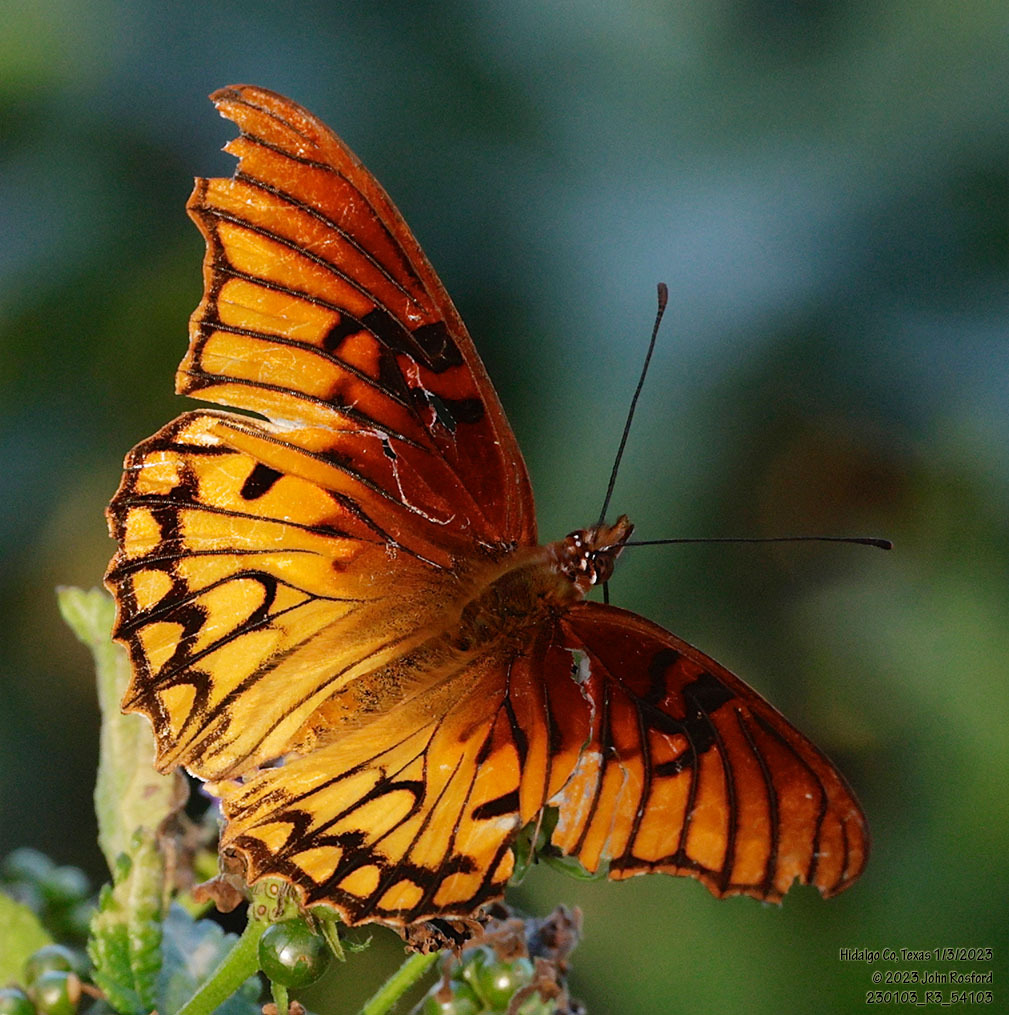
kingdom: Animalia
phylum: Arthropoda
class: Insecta
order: Lepidoptera
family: Nymphalidae
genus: Dione
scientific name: Dione moneta
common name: Mexican silverspot
